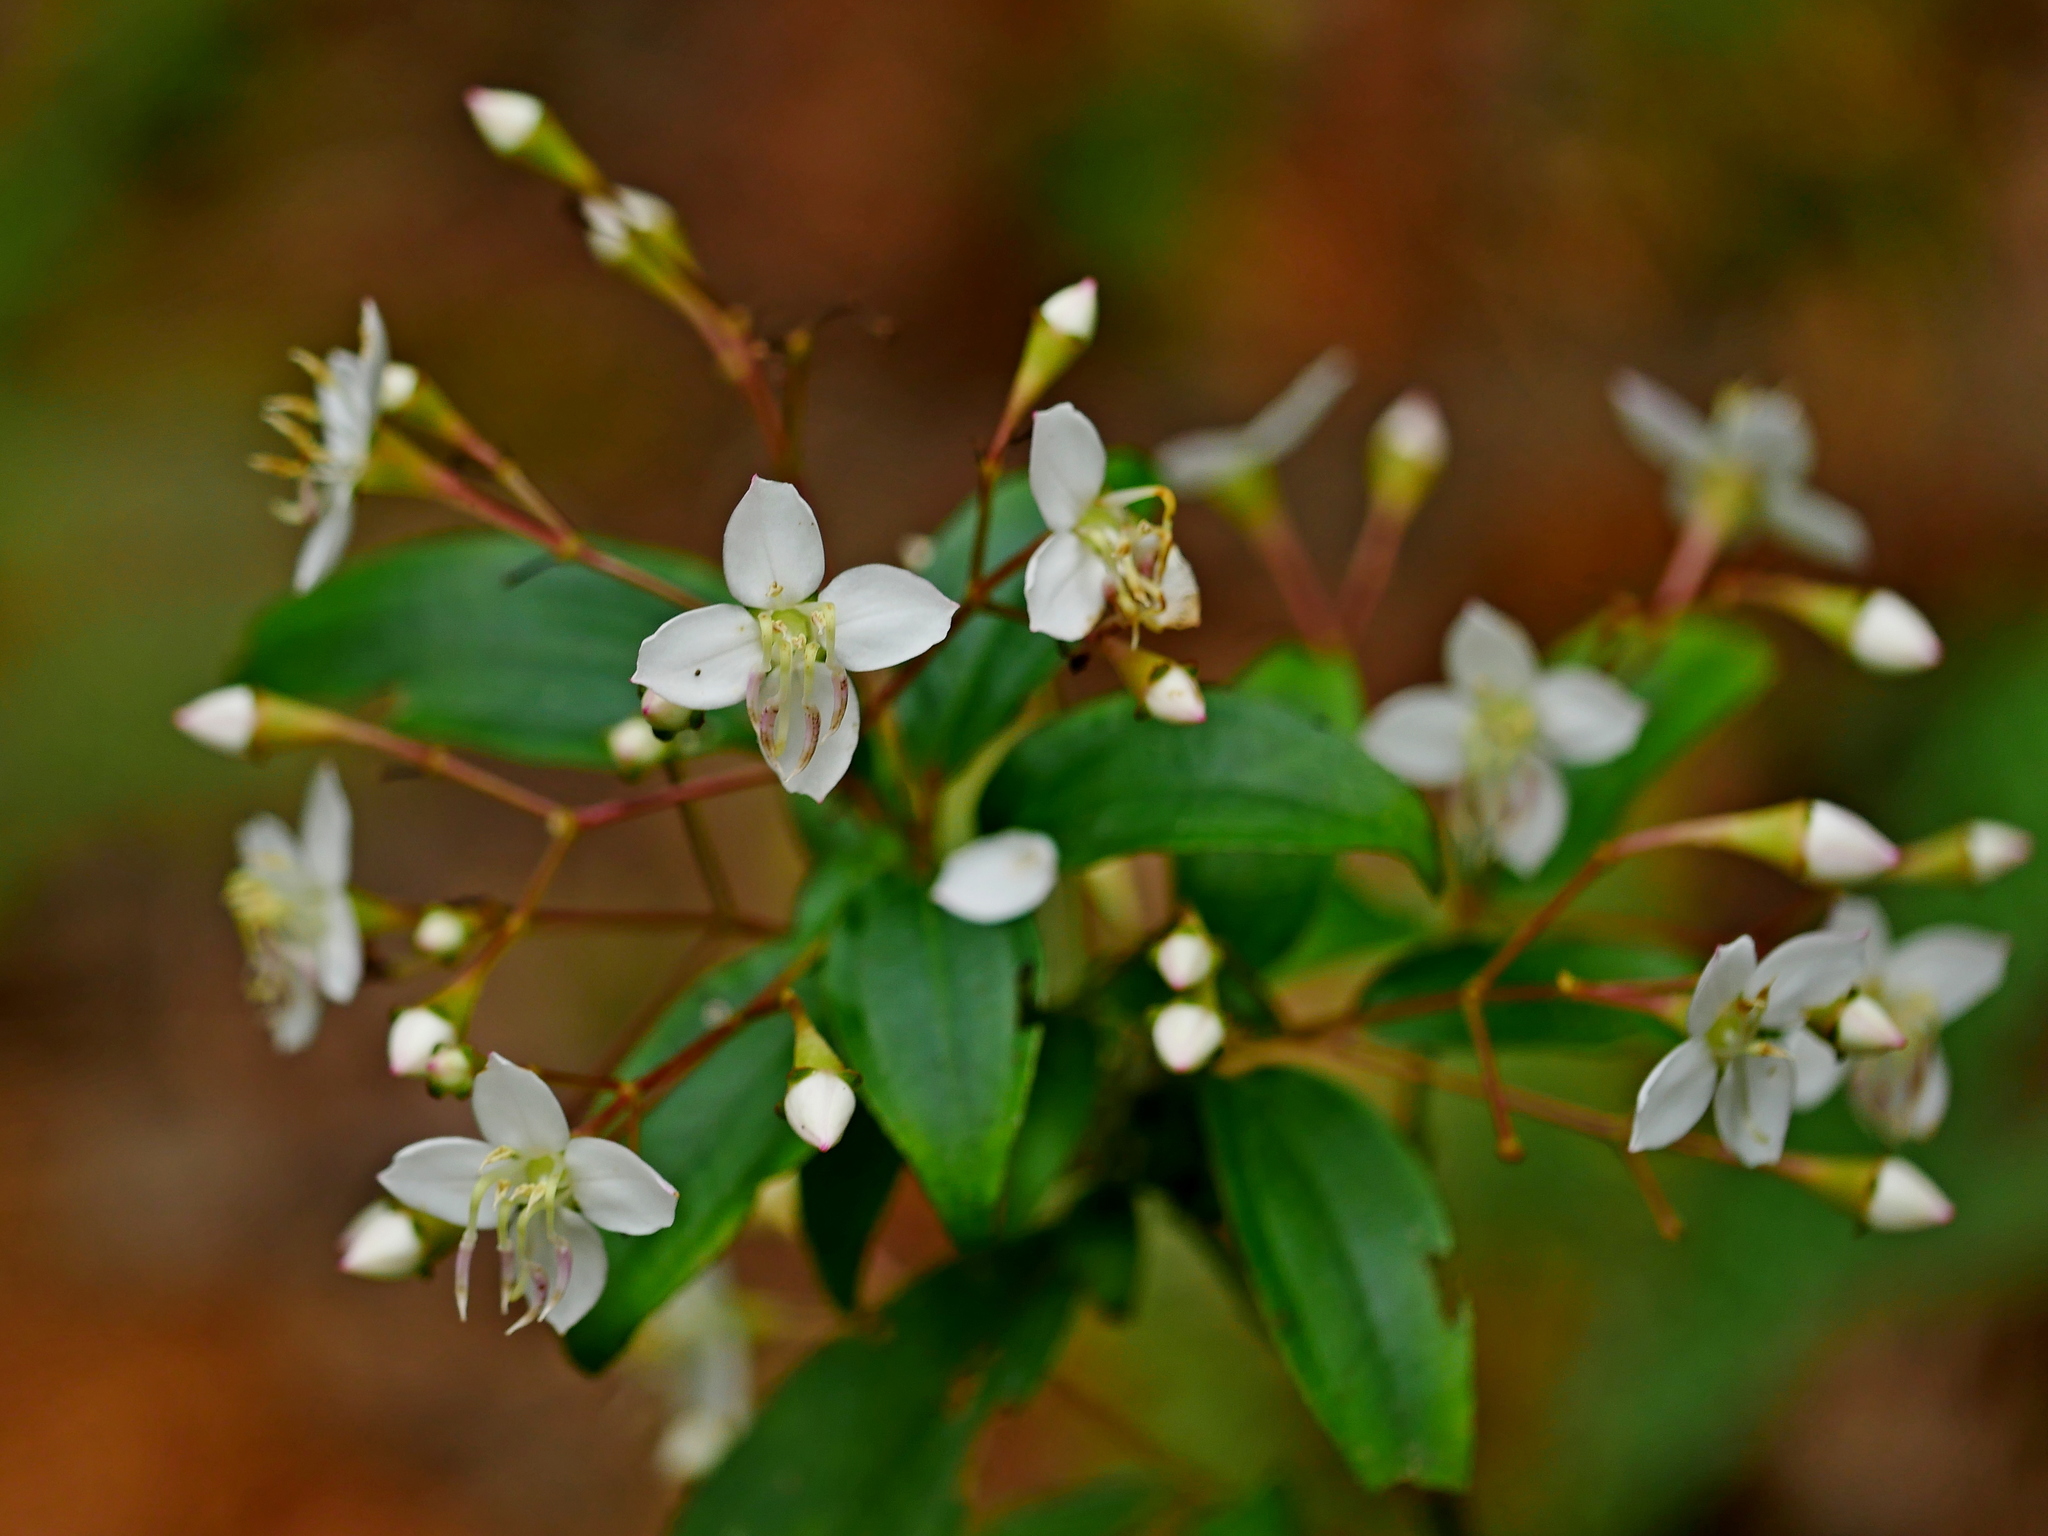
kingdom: Plantae
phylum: Tracheophyta
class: Magnoliopsida
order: Myrtales
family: Melastomataceae
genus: Bredia
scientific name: Bredia oldhamii
